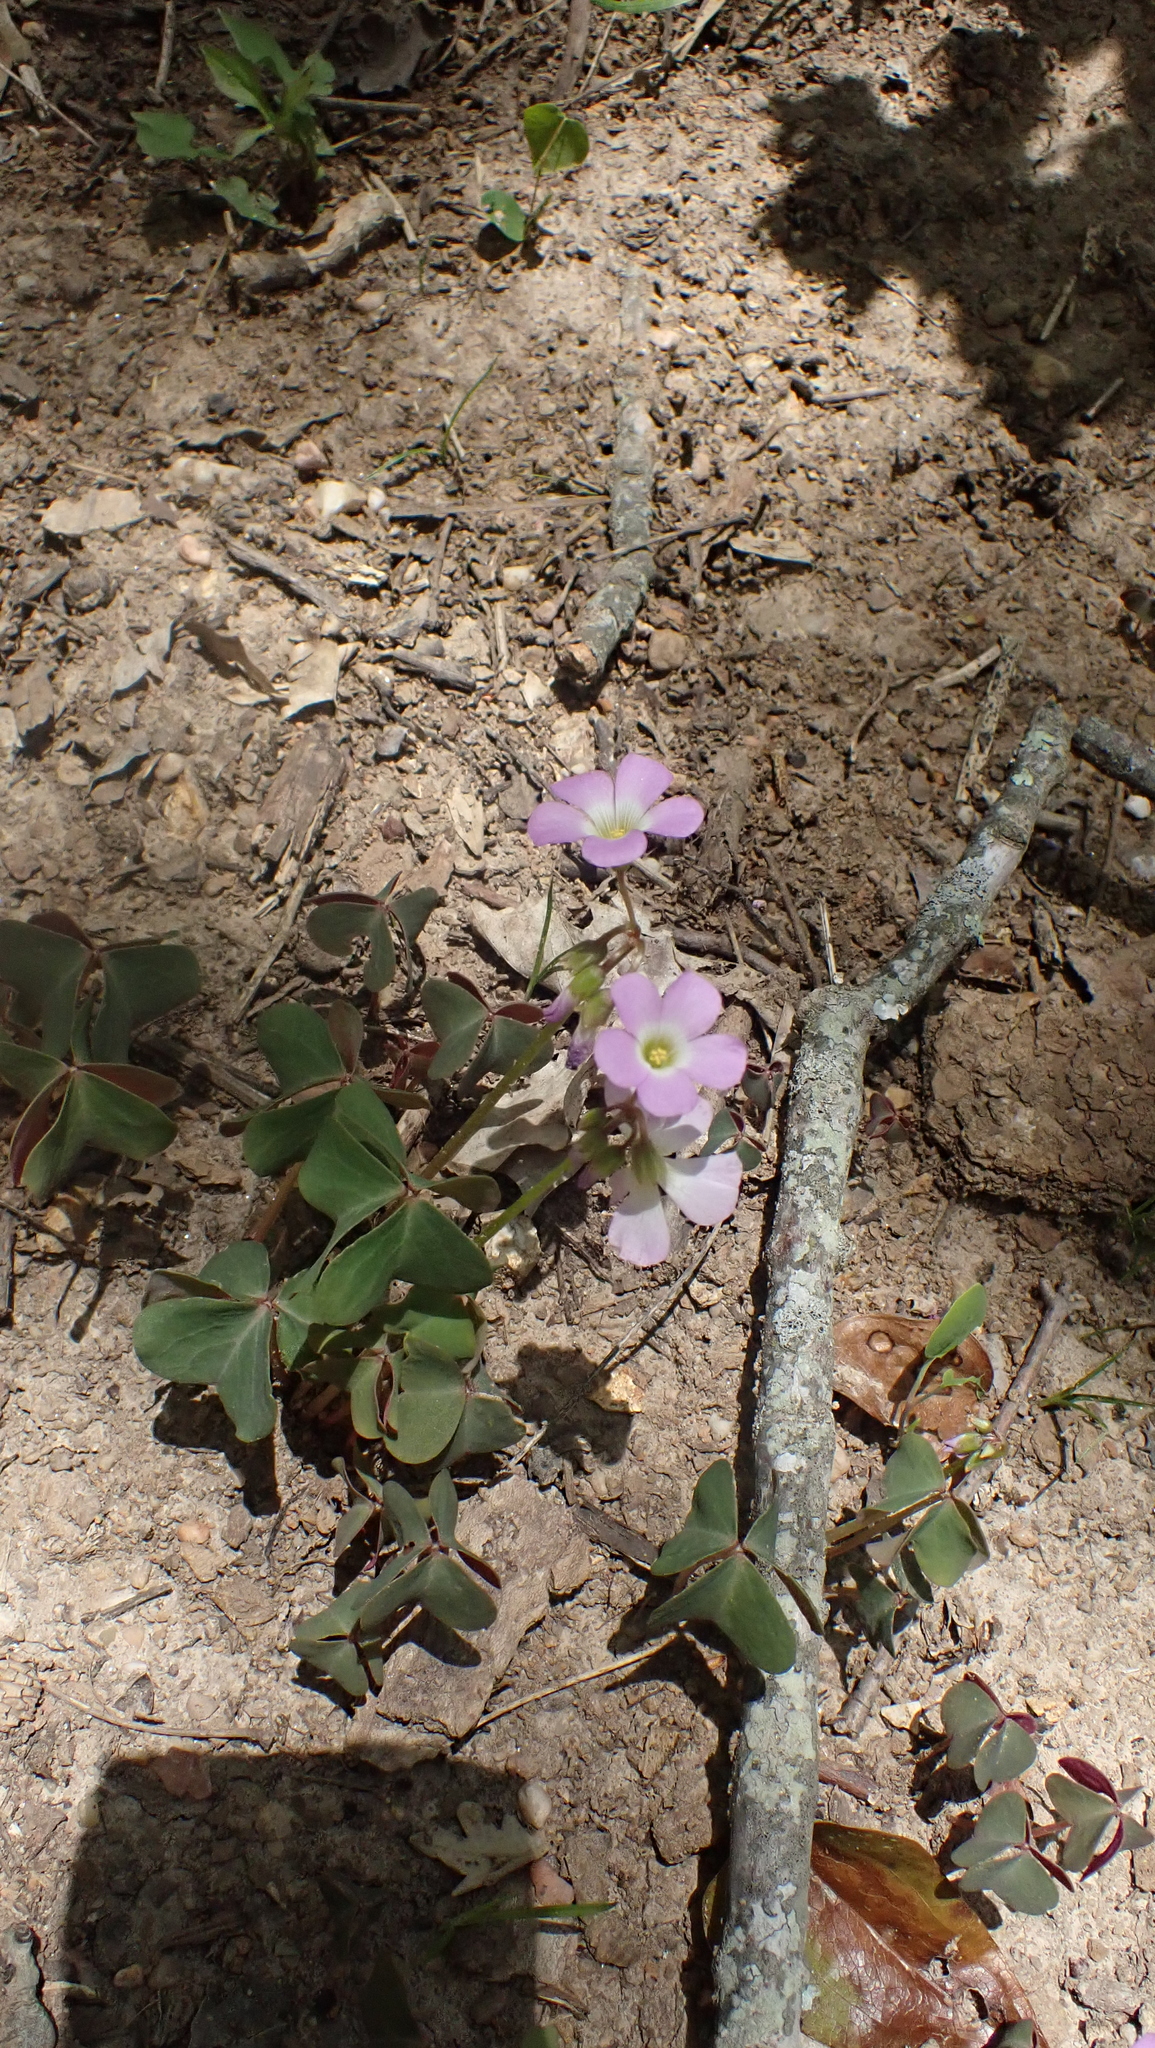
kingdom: Plantae
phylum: Tracheophyta
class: Magnoliopsida
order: Oxalidales
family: Oxalidaceae
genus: Oxalis
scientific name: Oxalis violacea
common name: Violet wood-sorrel
